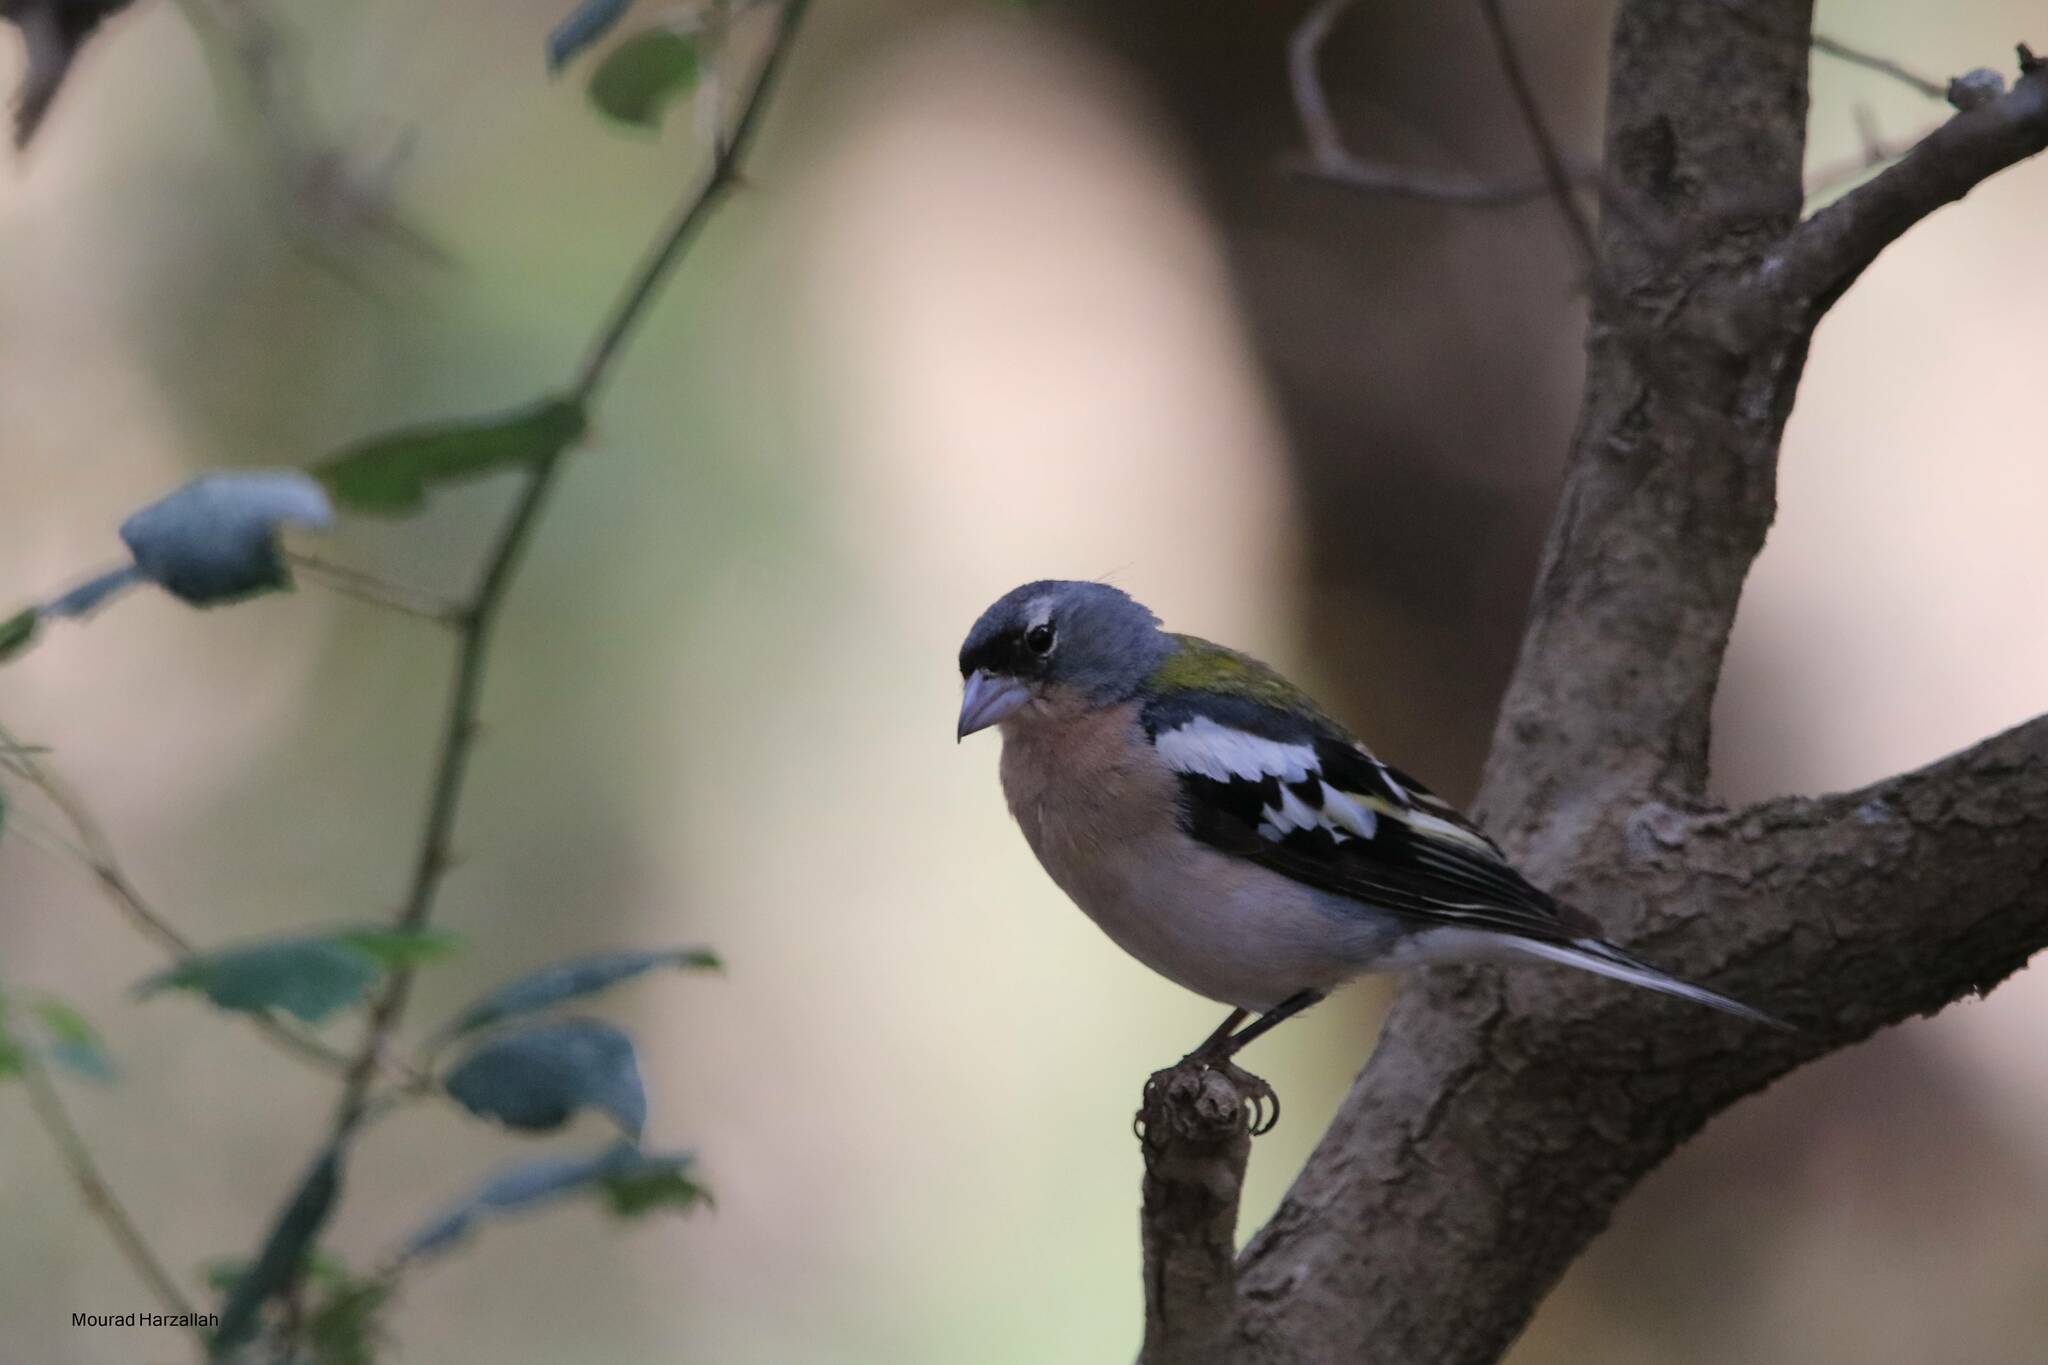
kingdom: Animalia
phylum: Chordata
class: Aves
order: Passeriformes
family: Fringillidae
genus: Fringilla
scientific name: Fringilla spodiogenys
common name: African chaffinch
